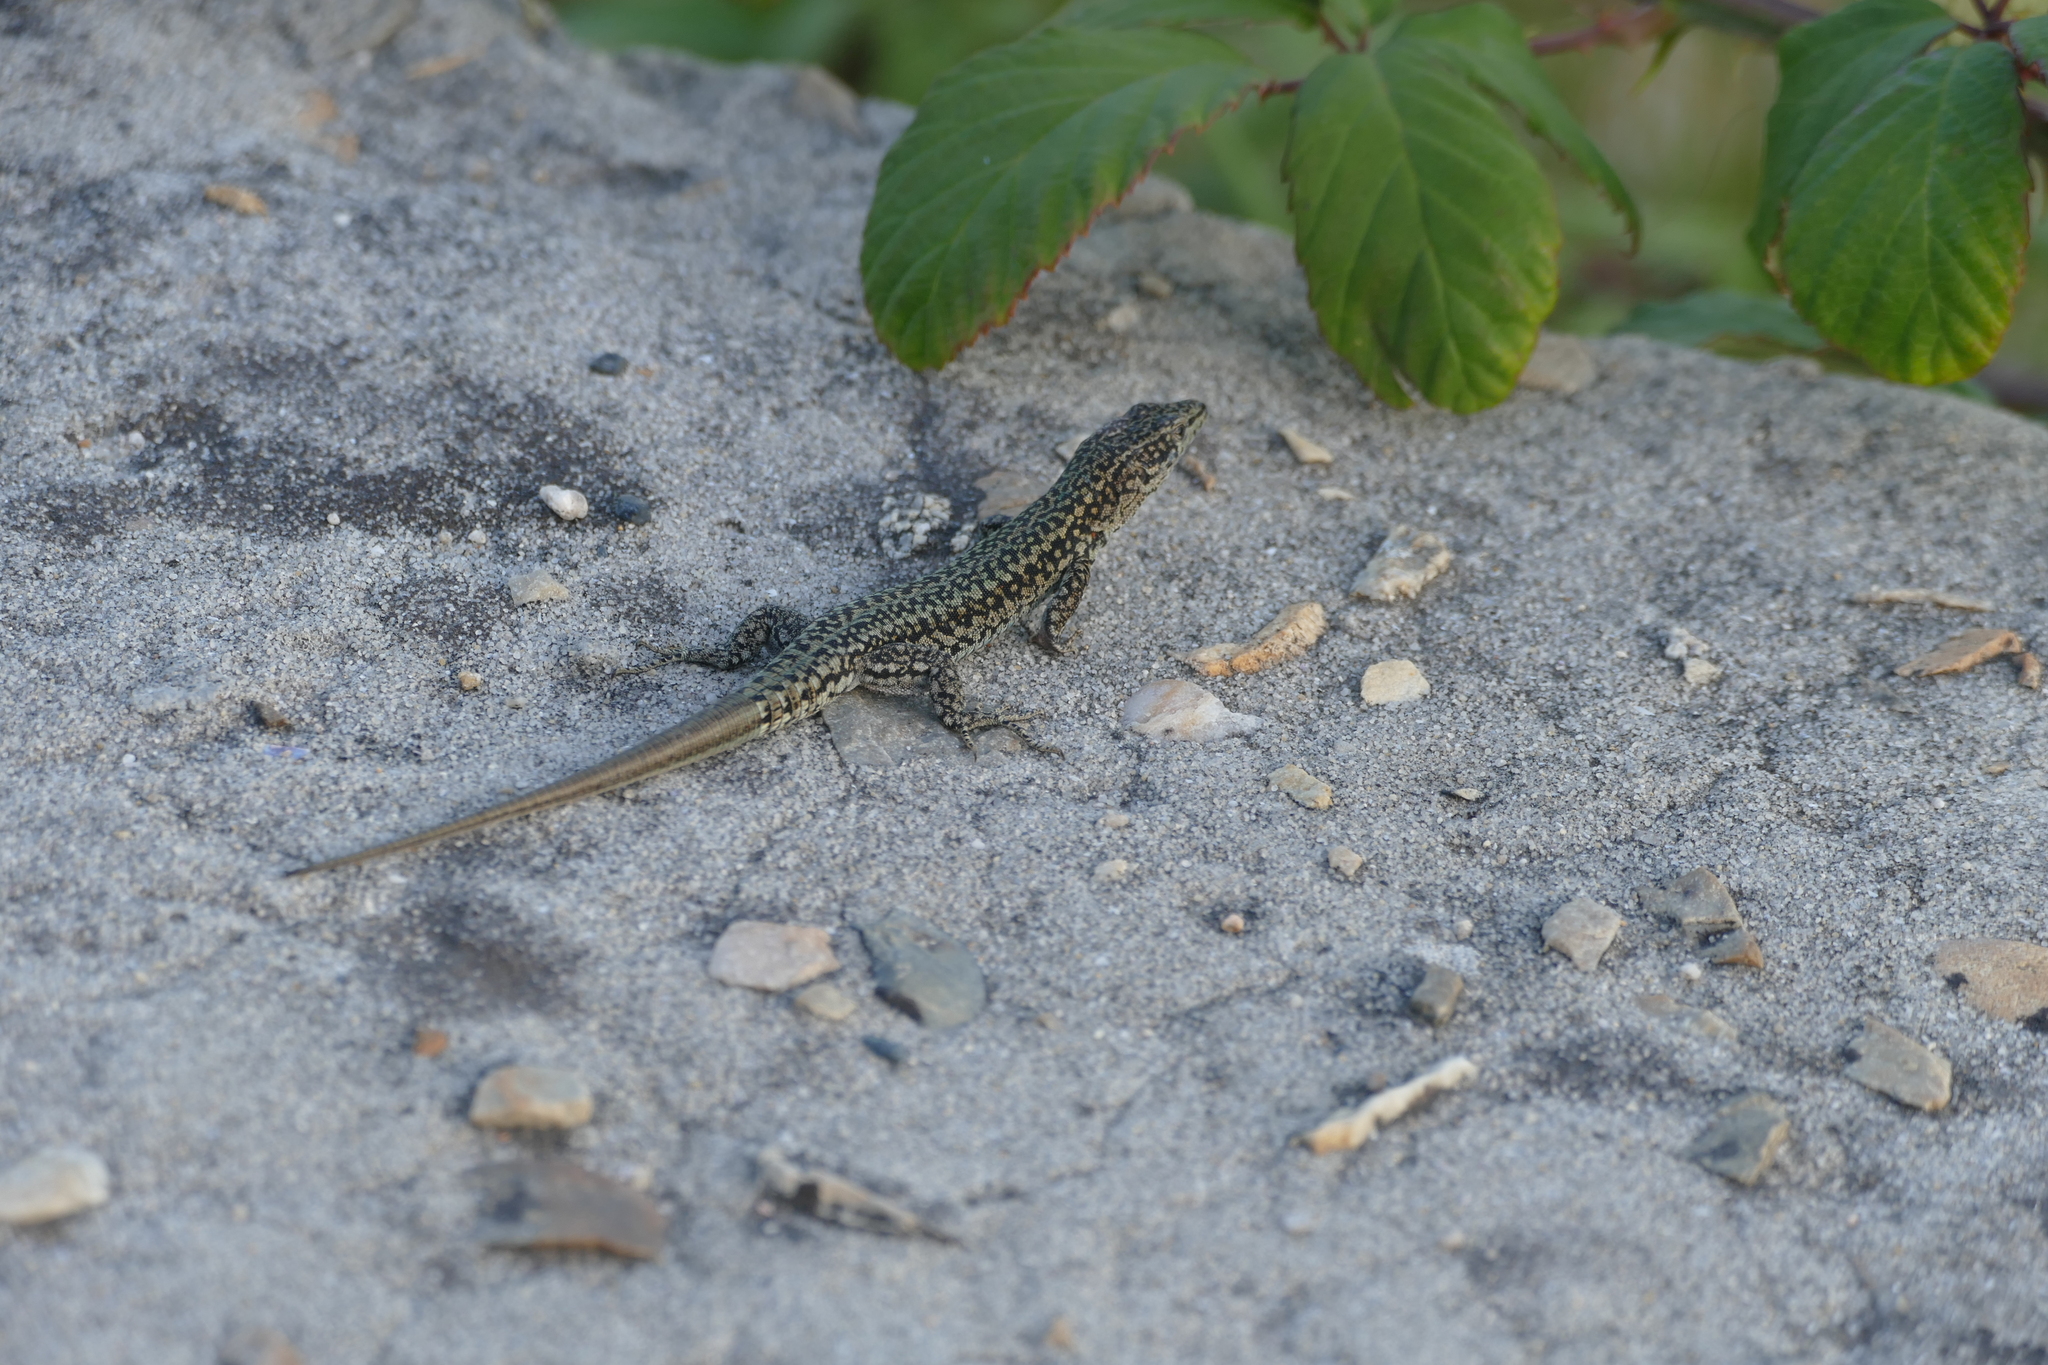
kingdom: Animalia
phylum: Chordata
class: Squamata
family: Lacertidae
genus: Podarcis
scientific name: Podarcis
